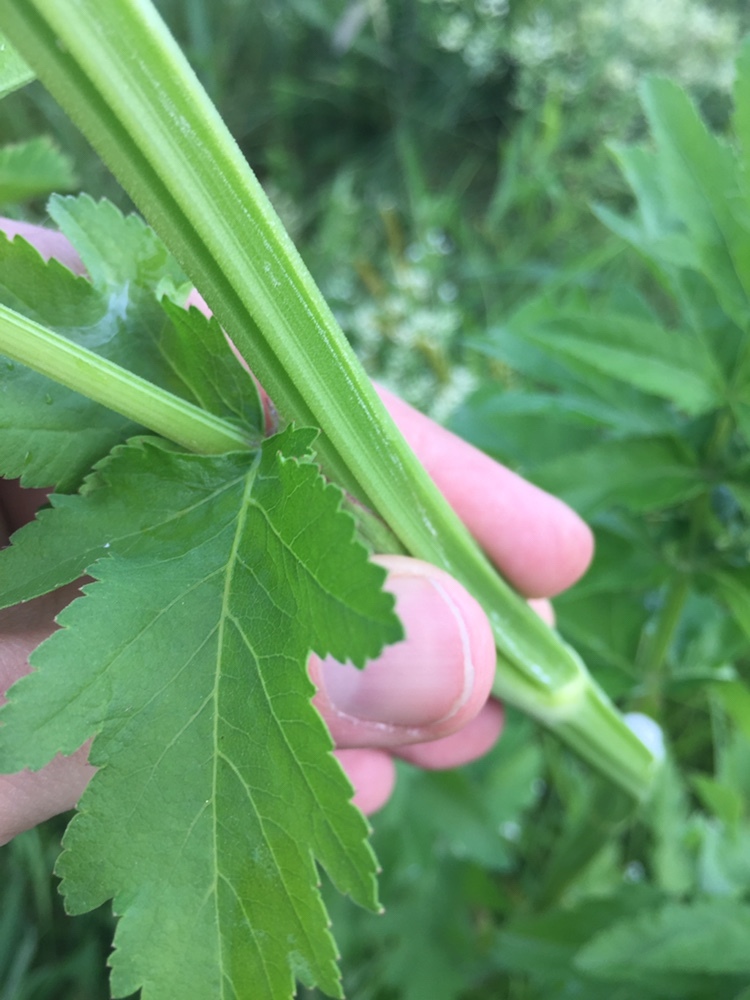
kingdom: Plantae
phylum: Tracheophyta
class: Magnoliopsida
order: Apiales
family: Apiaceae
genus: Pastinaca
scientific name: Pastinaca sativa
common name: Wild parsnip
